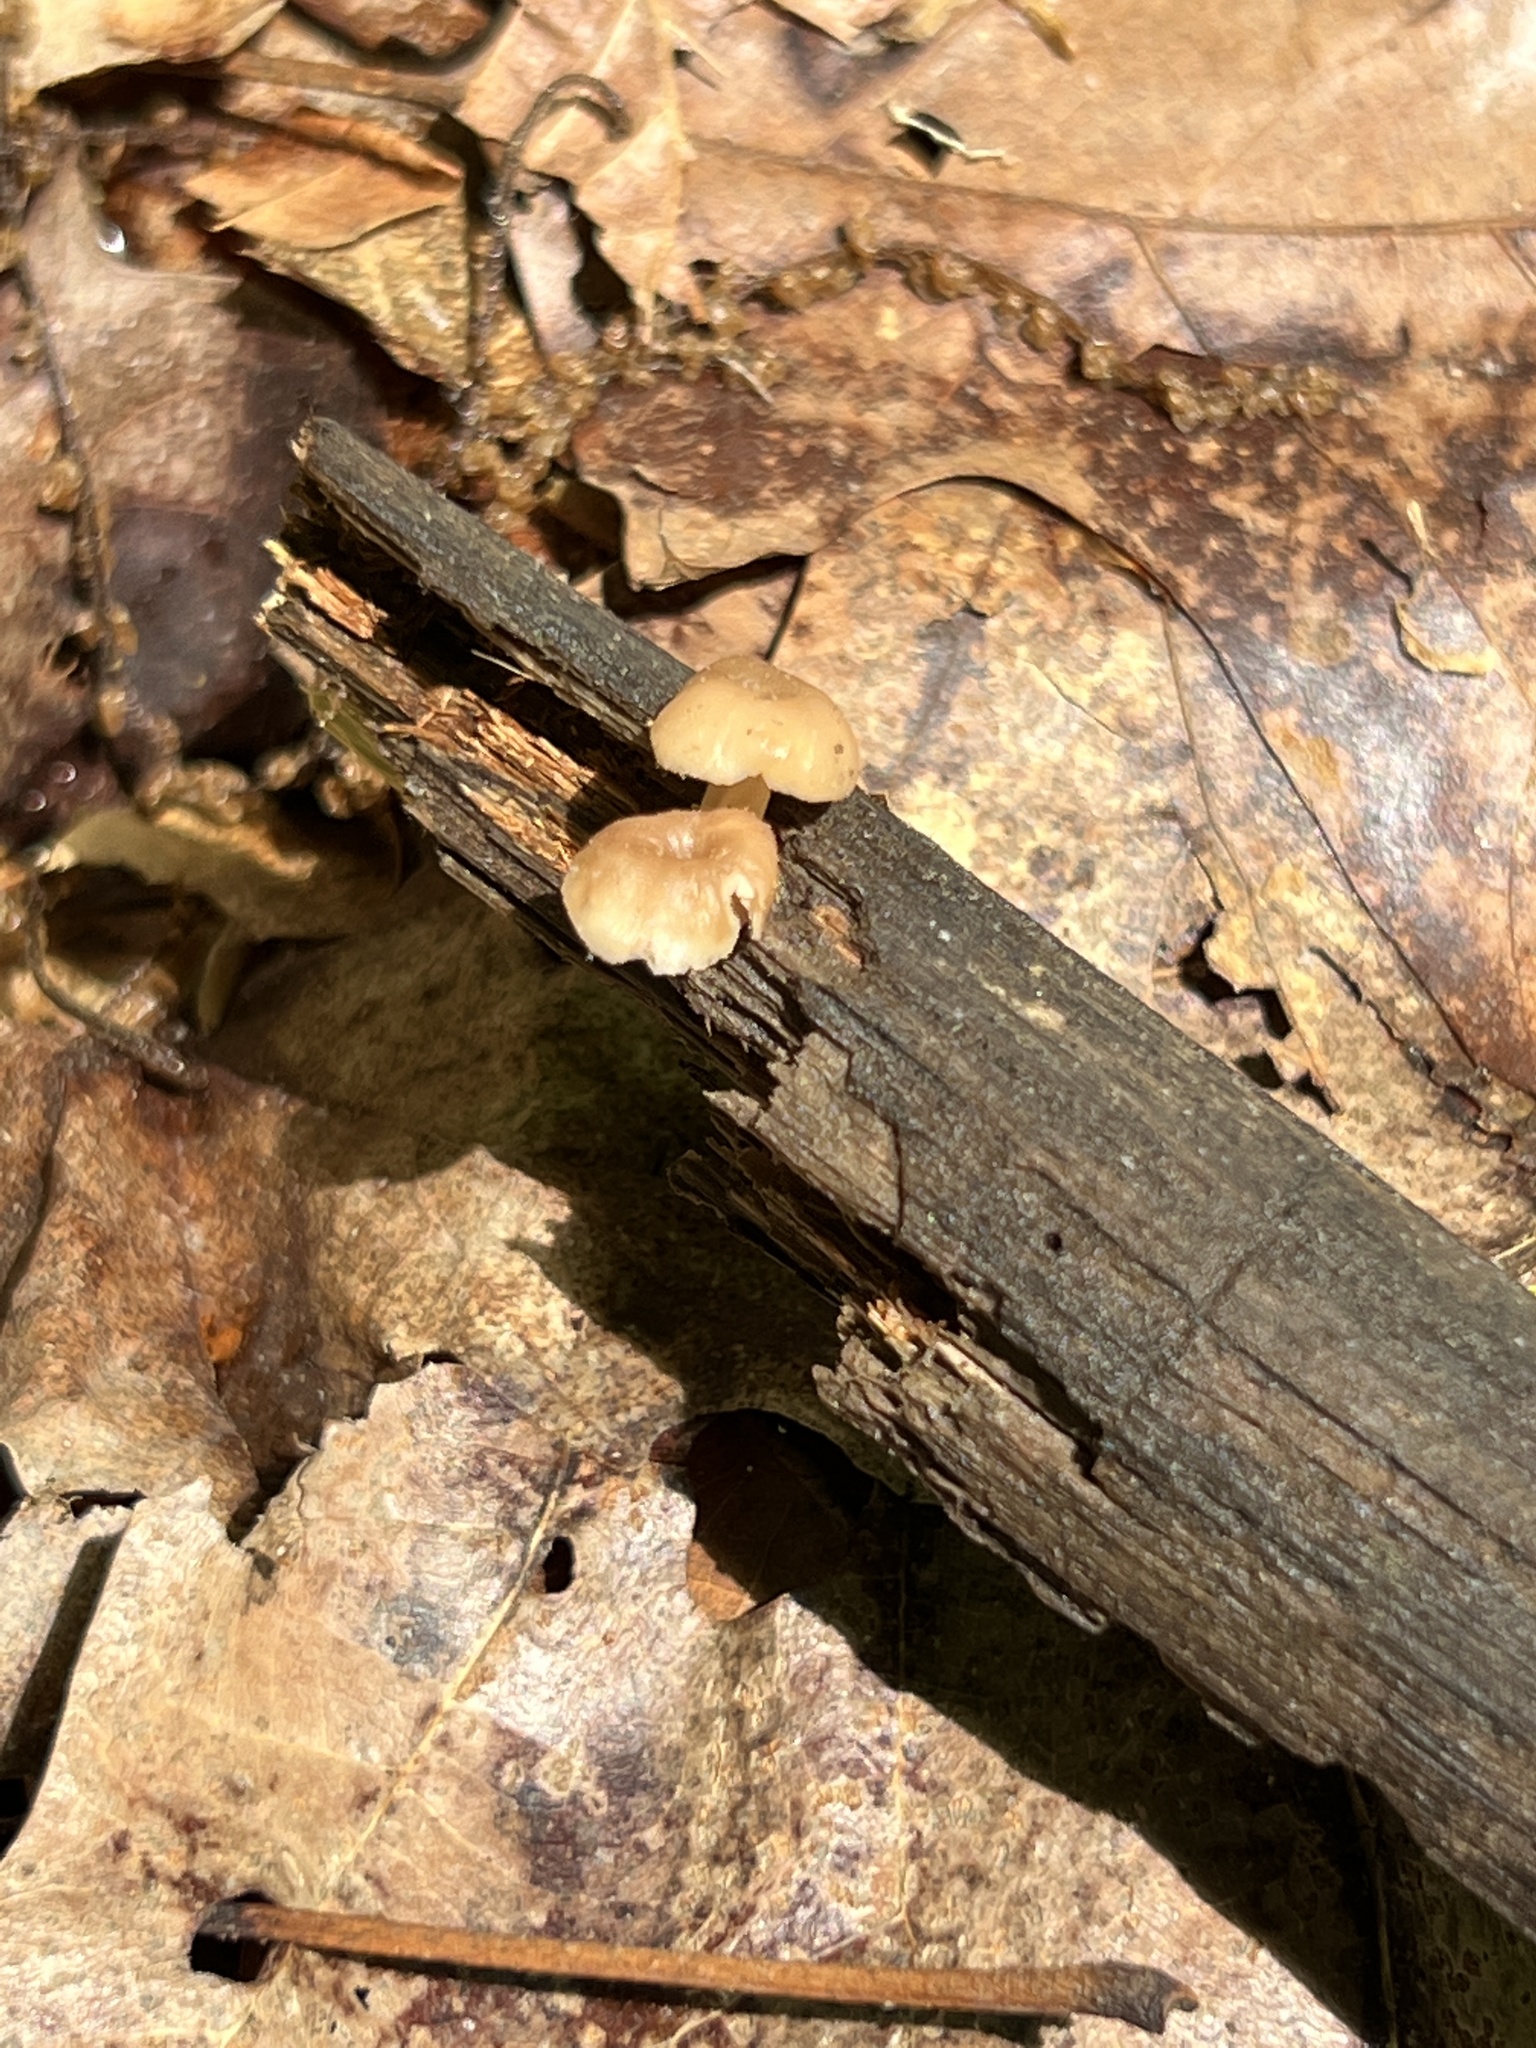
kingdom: Fungi
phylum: Basidiomycota
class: Agaricomycetes
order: Russulales
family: Auriscalpiaceae
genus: Lentinellus
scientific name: Lentinellus subaustralis
